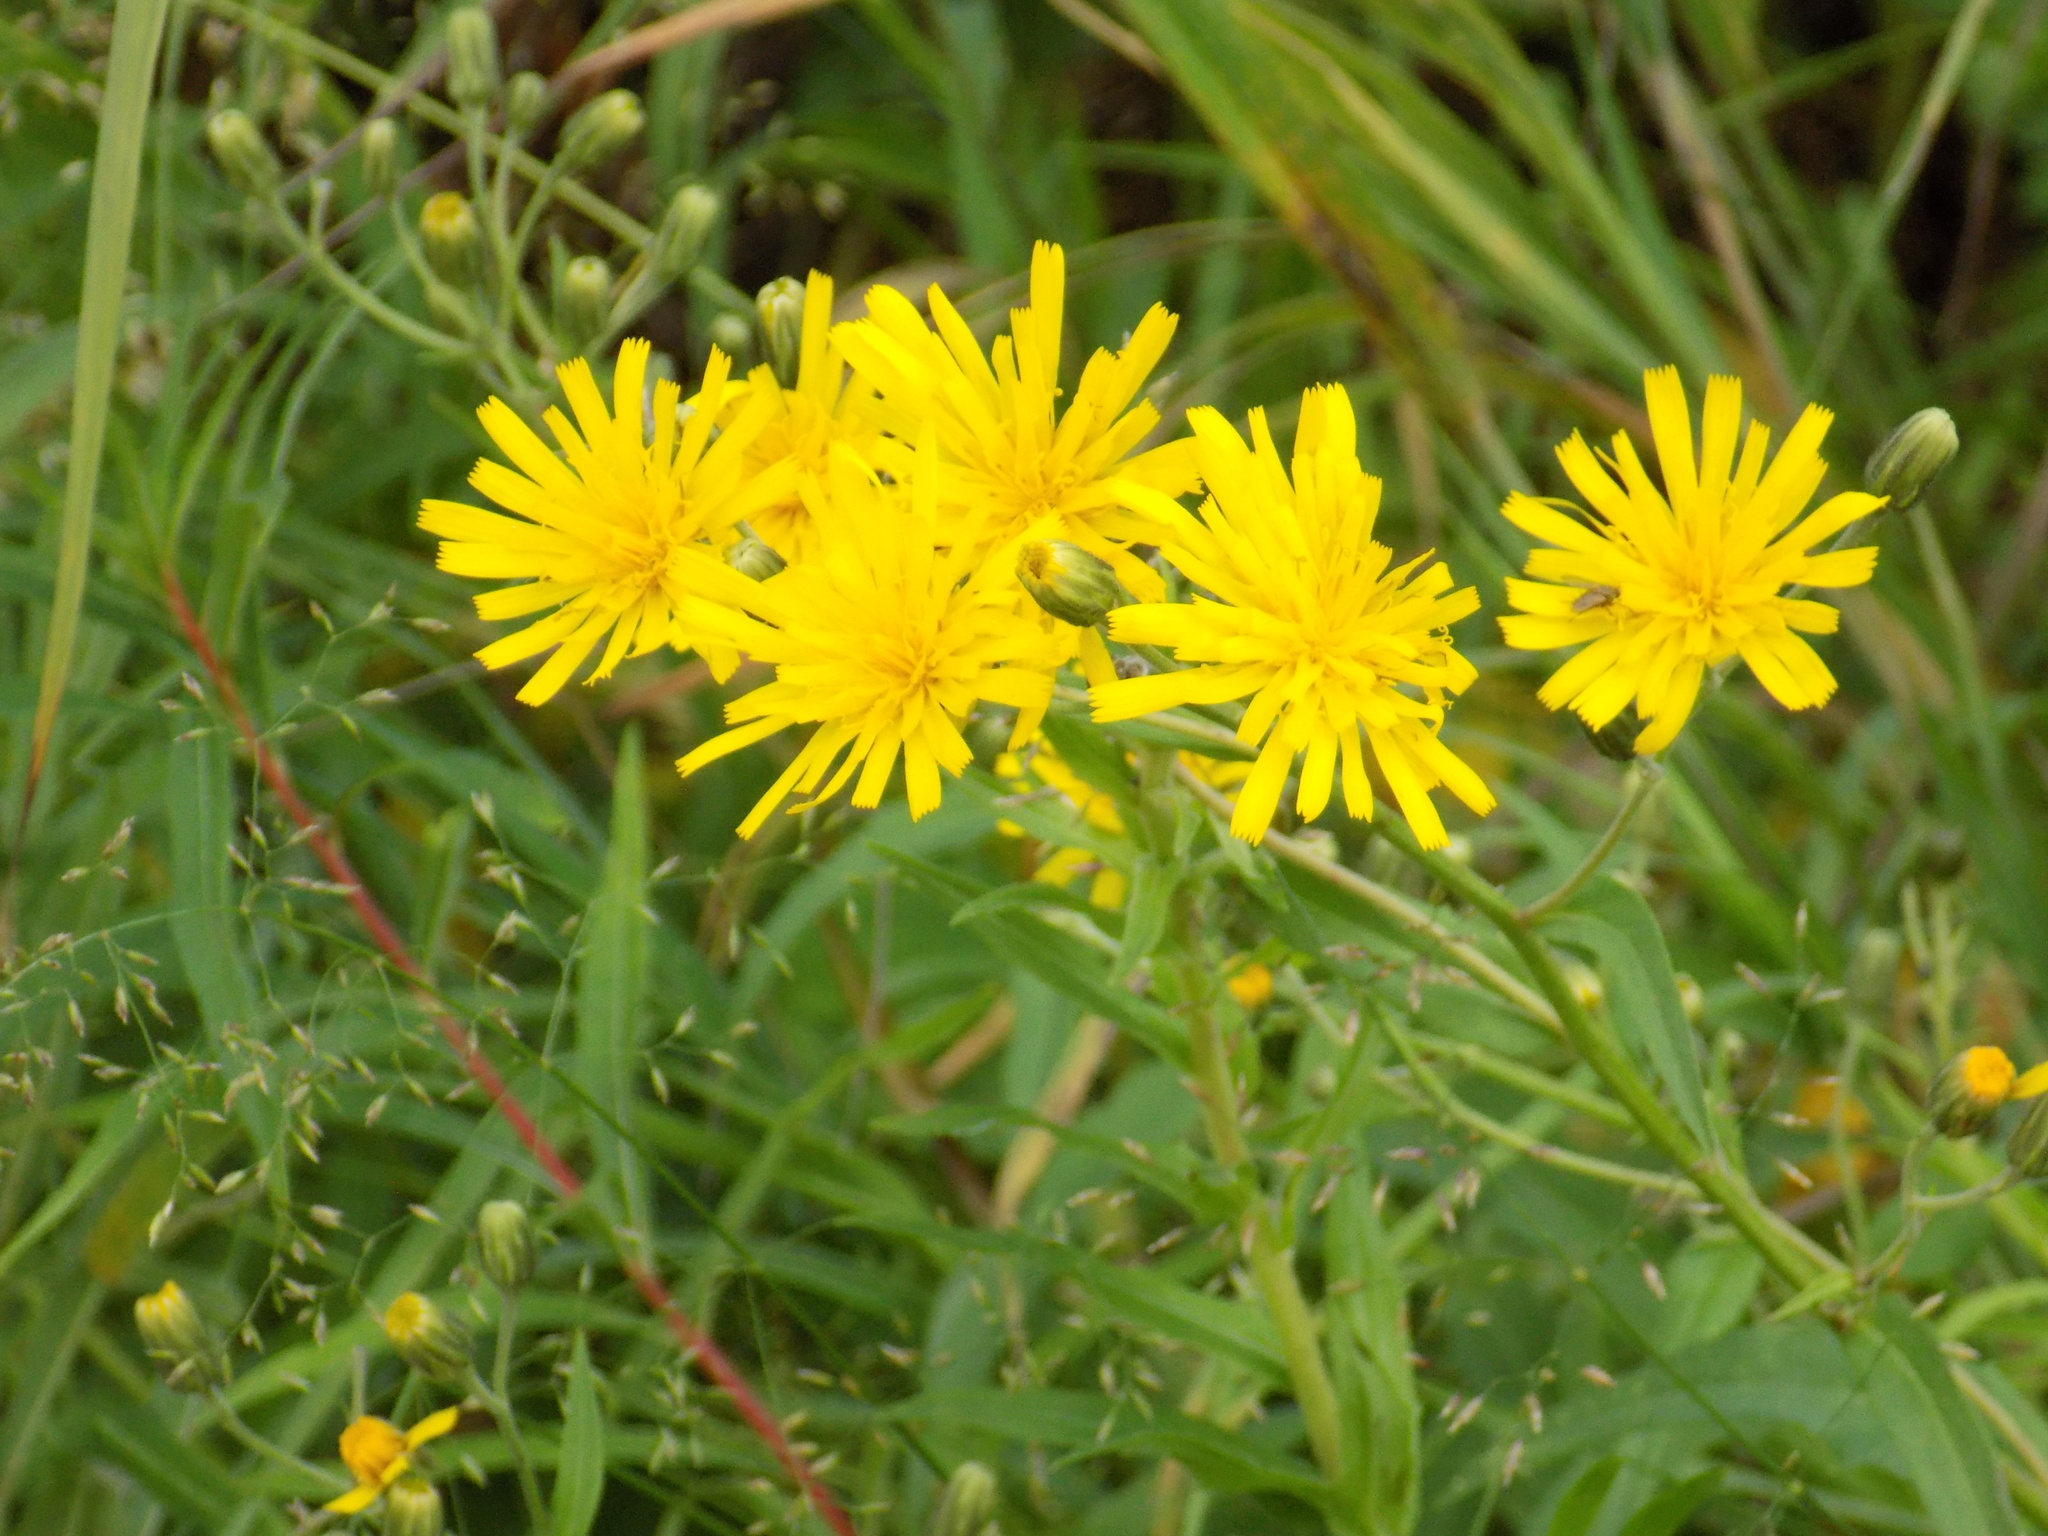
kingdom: Plantae
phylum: Tracheophyta
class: Magnoliopsida
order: Asterales
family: Asteraceae
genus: Hieracium
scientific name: Hieracium umbellatum
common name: Northern hawkweed
